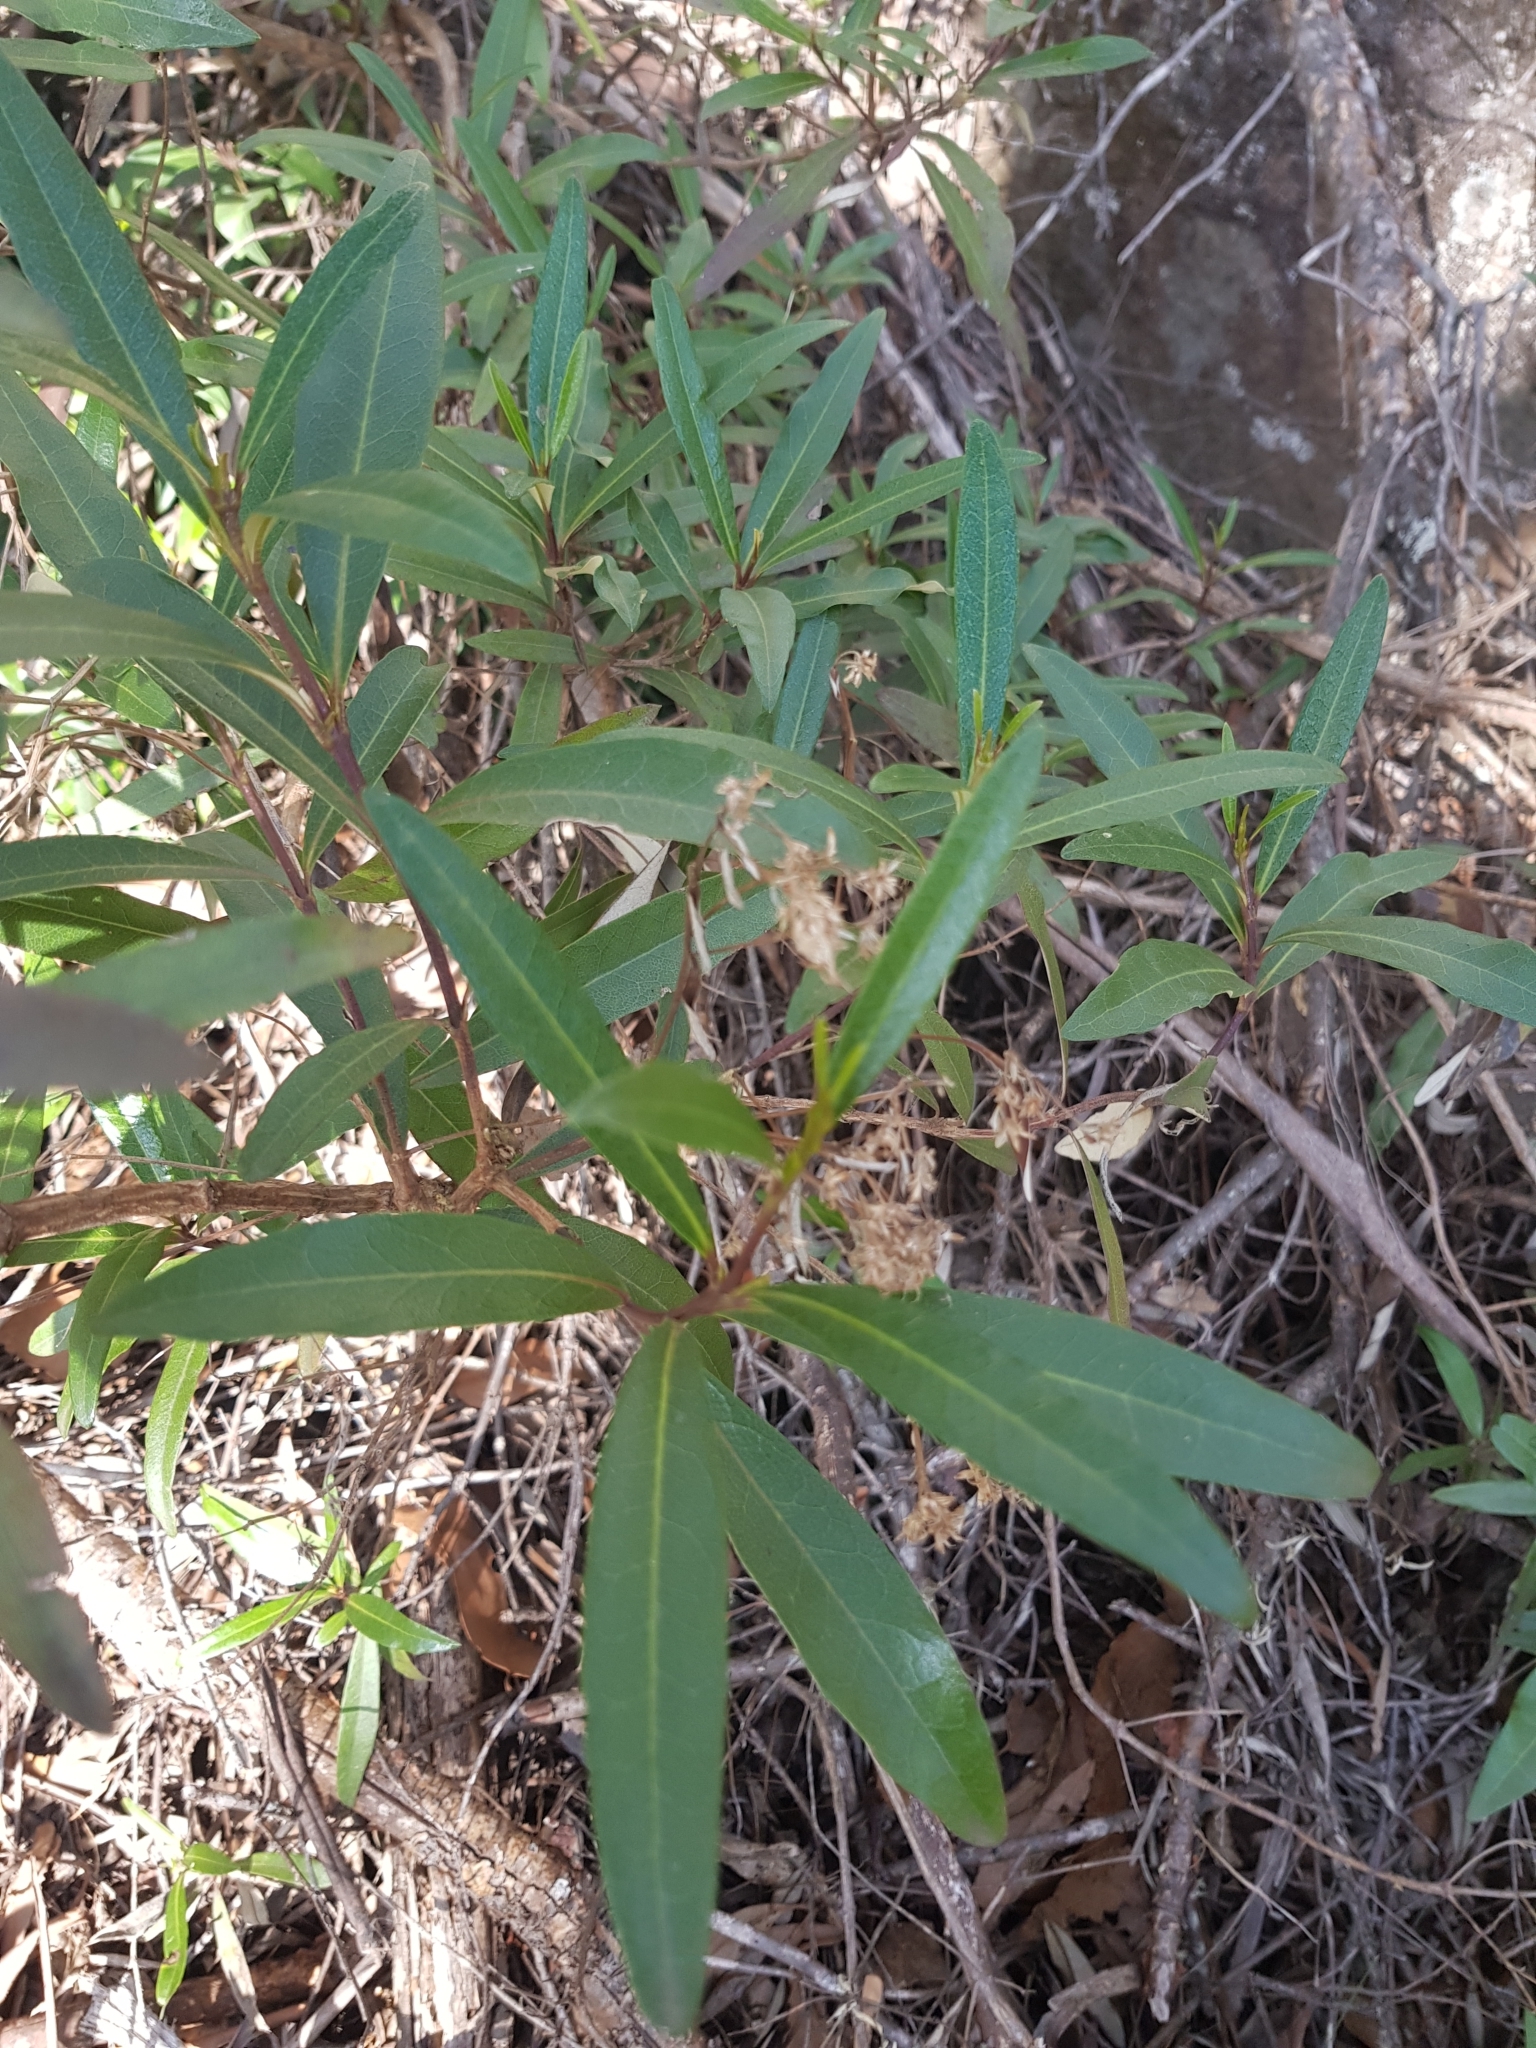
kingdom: Plantae
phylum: Tracheophyta
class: Magnoliopsida
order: Asterales
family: Asteraceae
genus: Olearia
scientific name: Olearia viscosa
